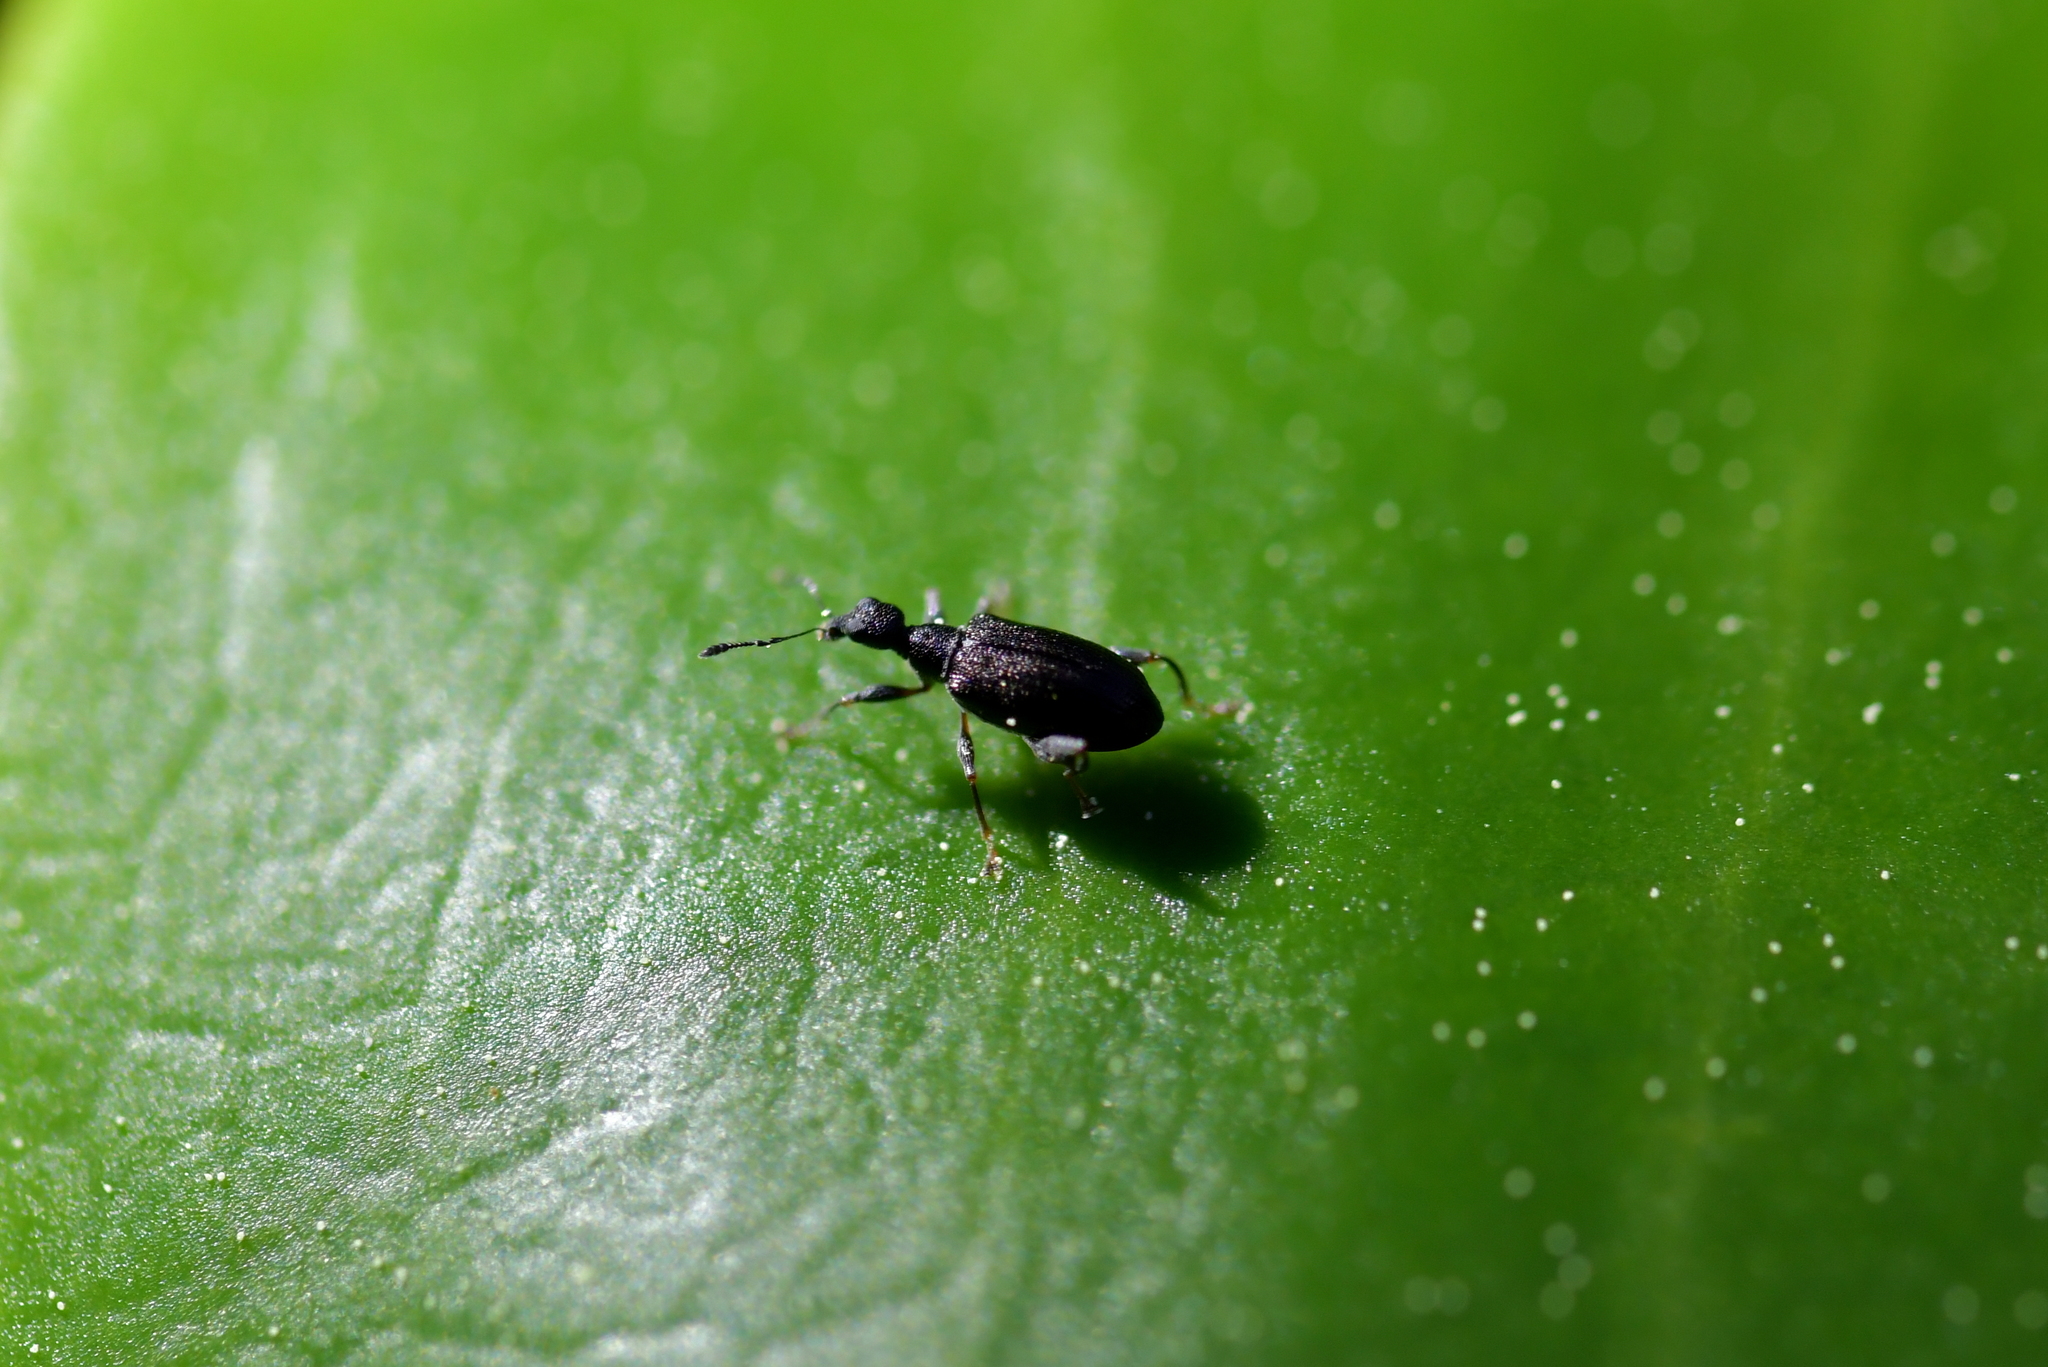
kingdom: Animalia
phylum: Arthropoda
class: Insecta
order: Coleoptera
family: Curculionidae
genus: Hoplocneme
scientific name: Hoplocneme punctatissima
